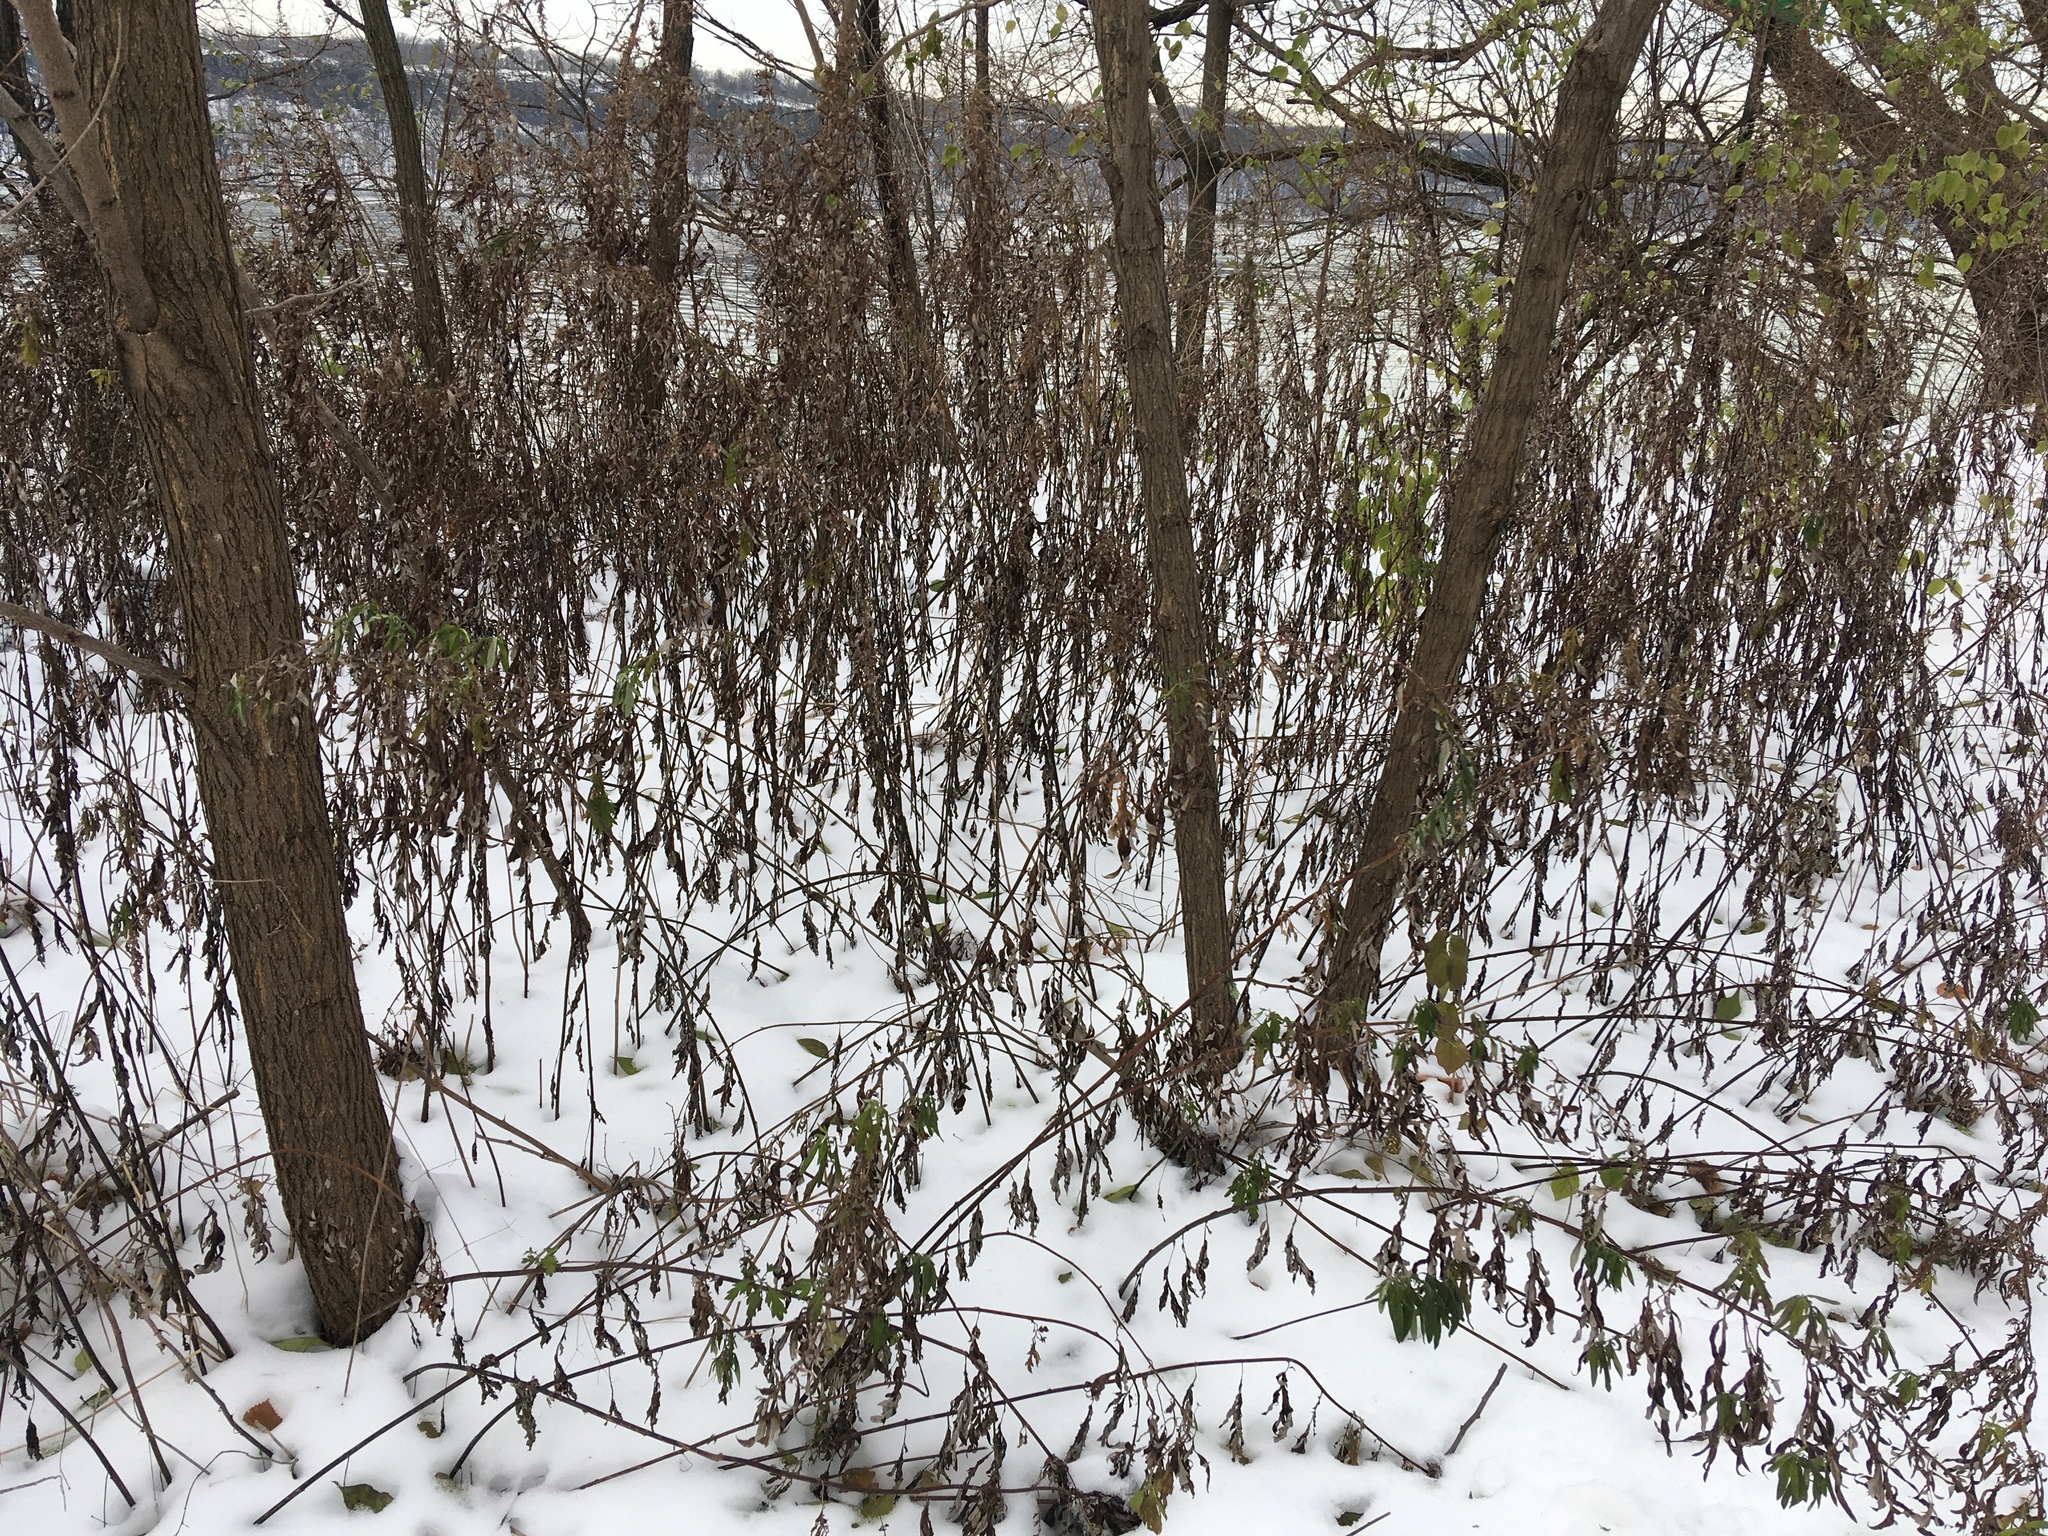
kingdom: Plantae
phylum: Tracheophyta
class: Magnoliopsida
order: Asterales
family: Asteraceae
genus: Artemisia
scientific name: Artemisia vulgaris
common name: Mugwort
